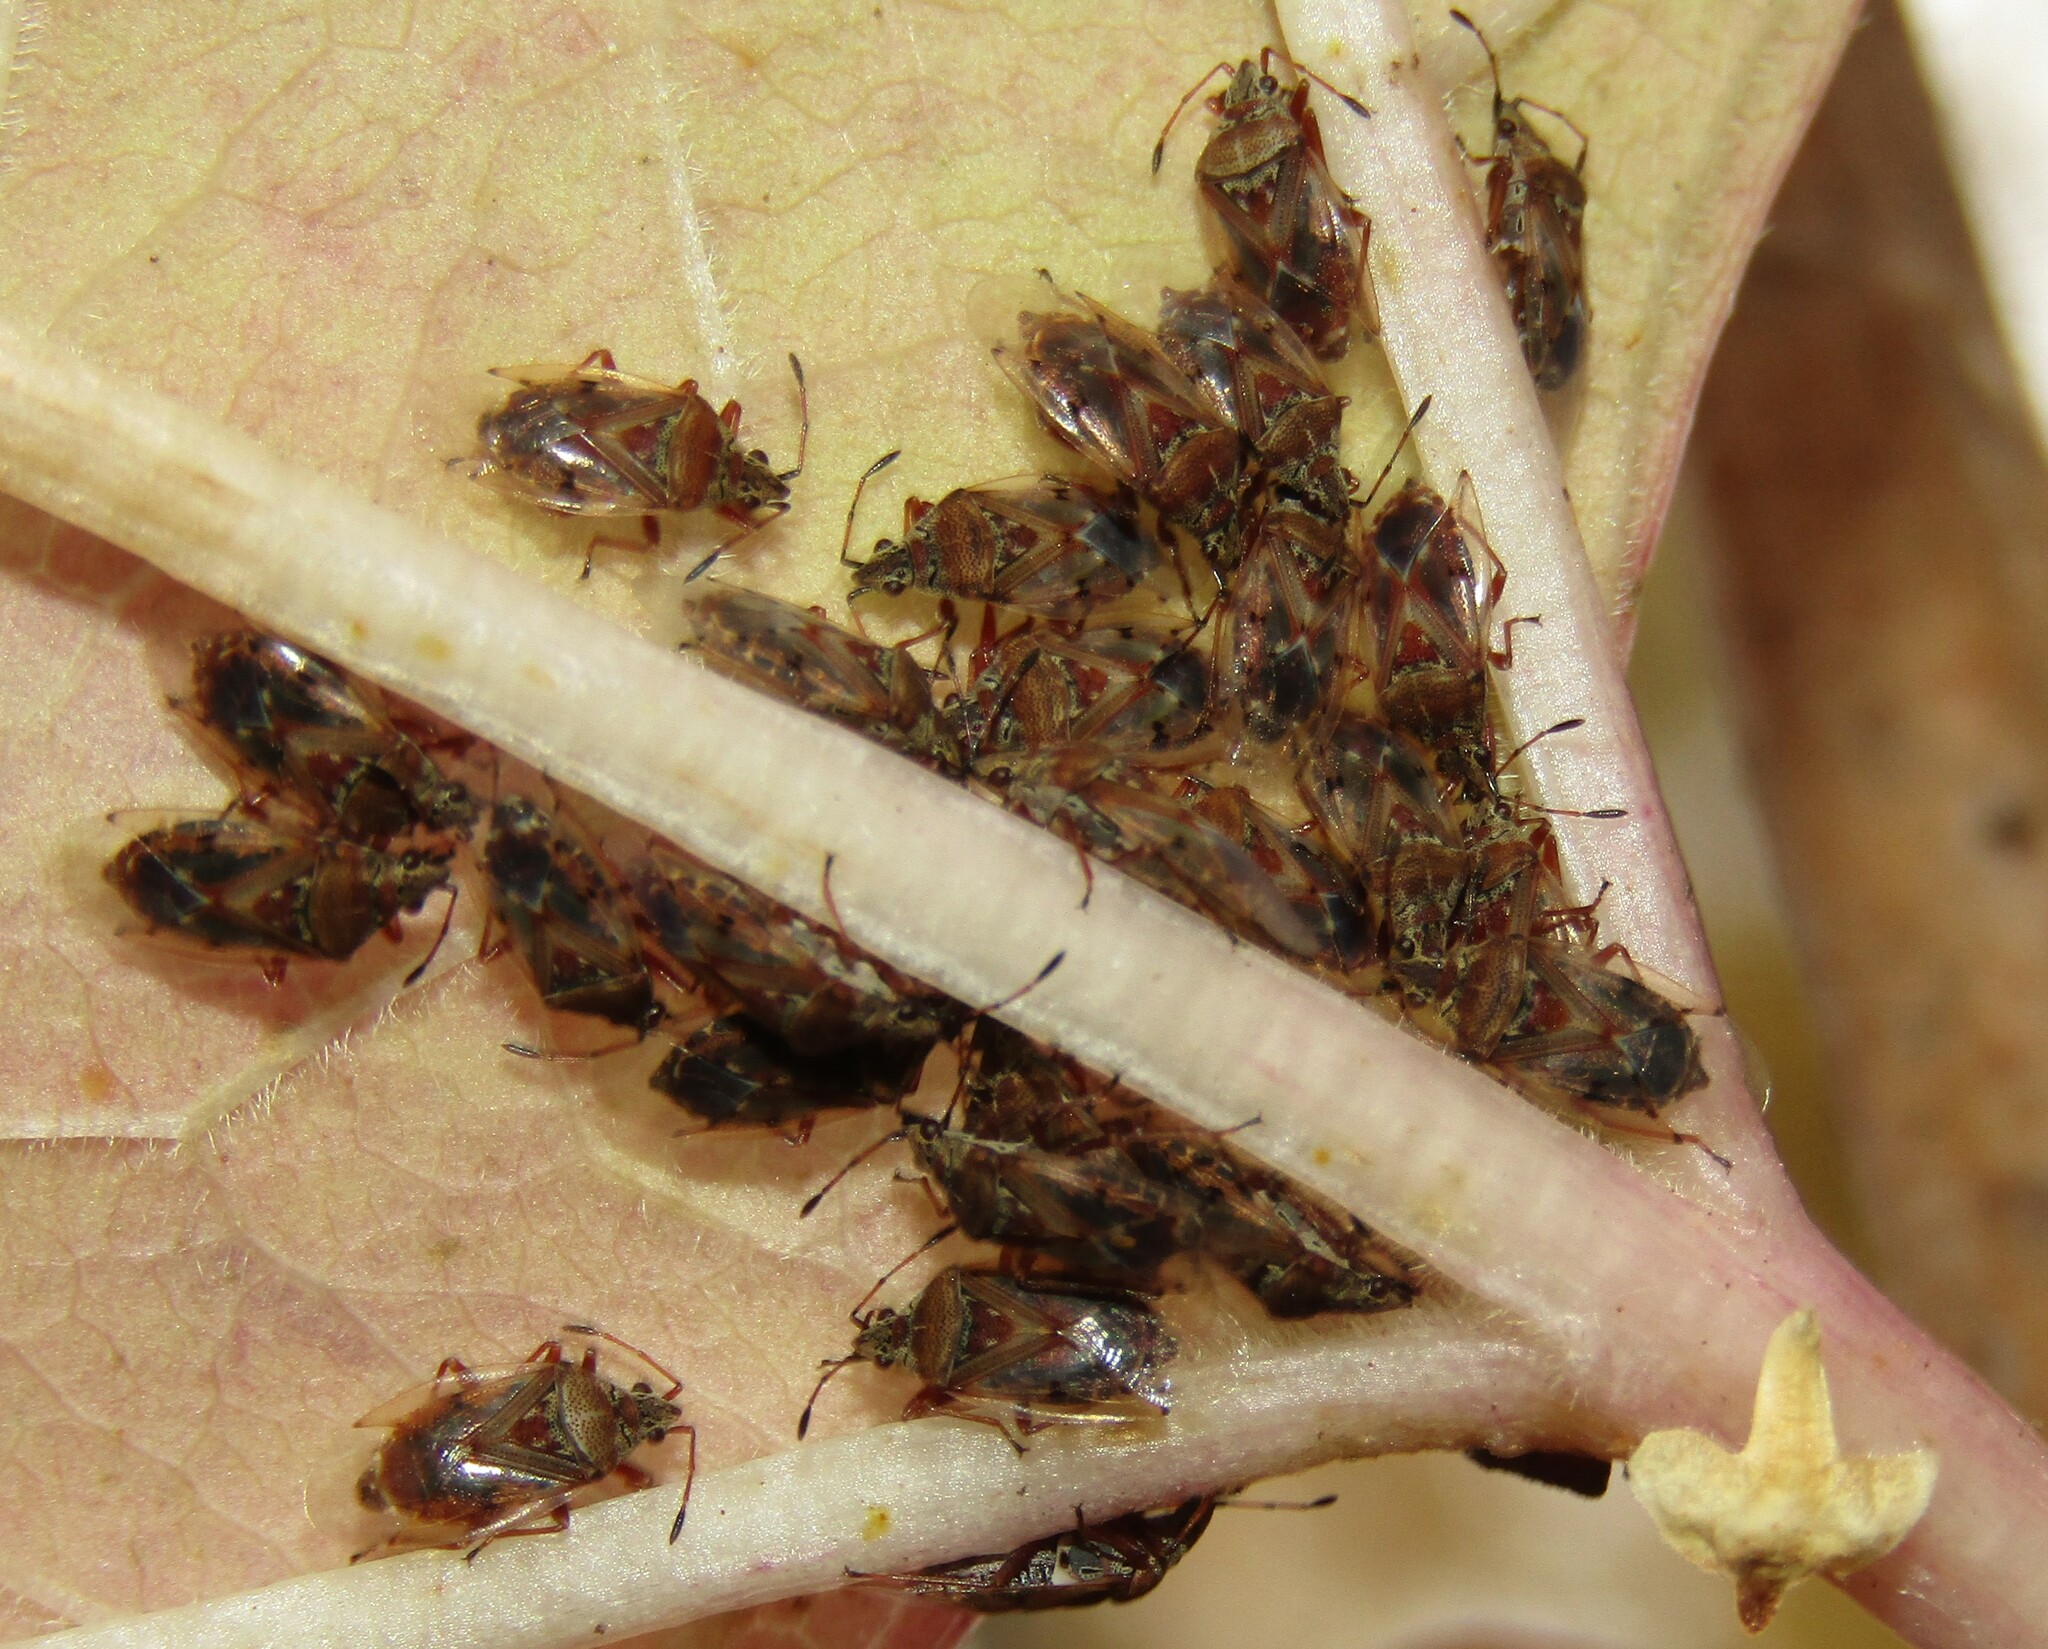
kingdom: Animalia
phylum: Arthropoda
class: Insecta
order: Hemiptera
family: Lygaeidae
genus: Kleidocerys
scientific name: Kleidocerys resedae
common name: Birch catkin bug
